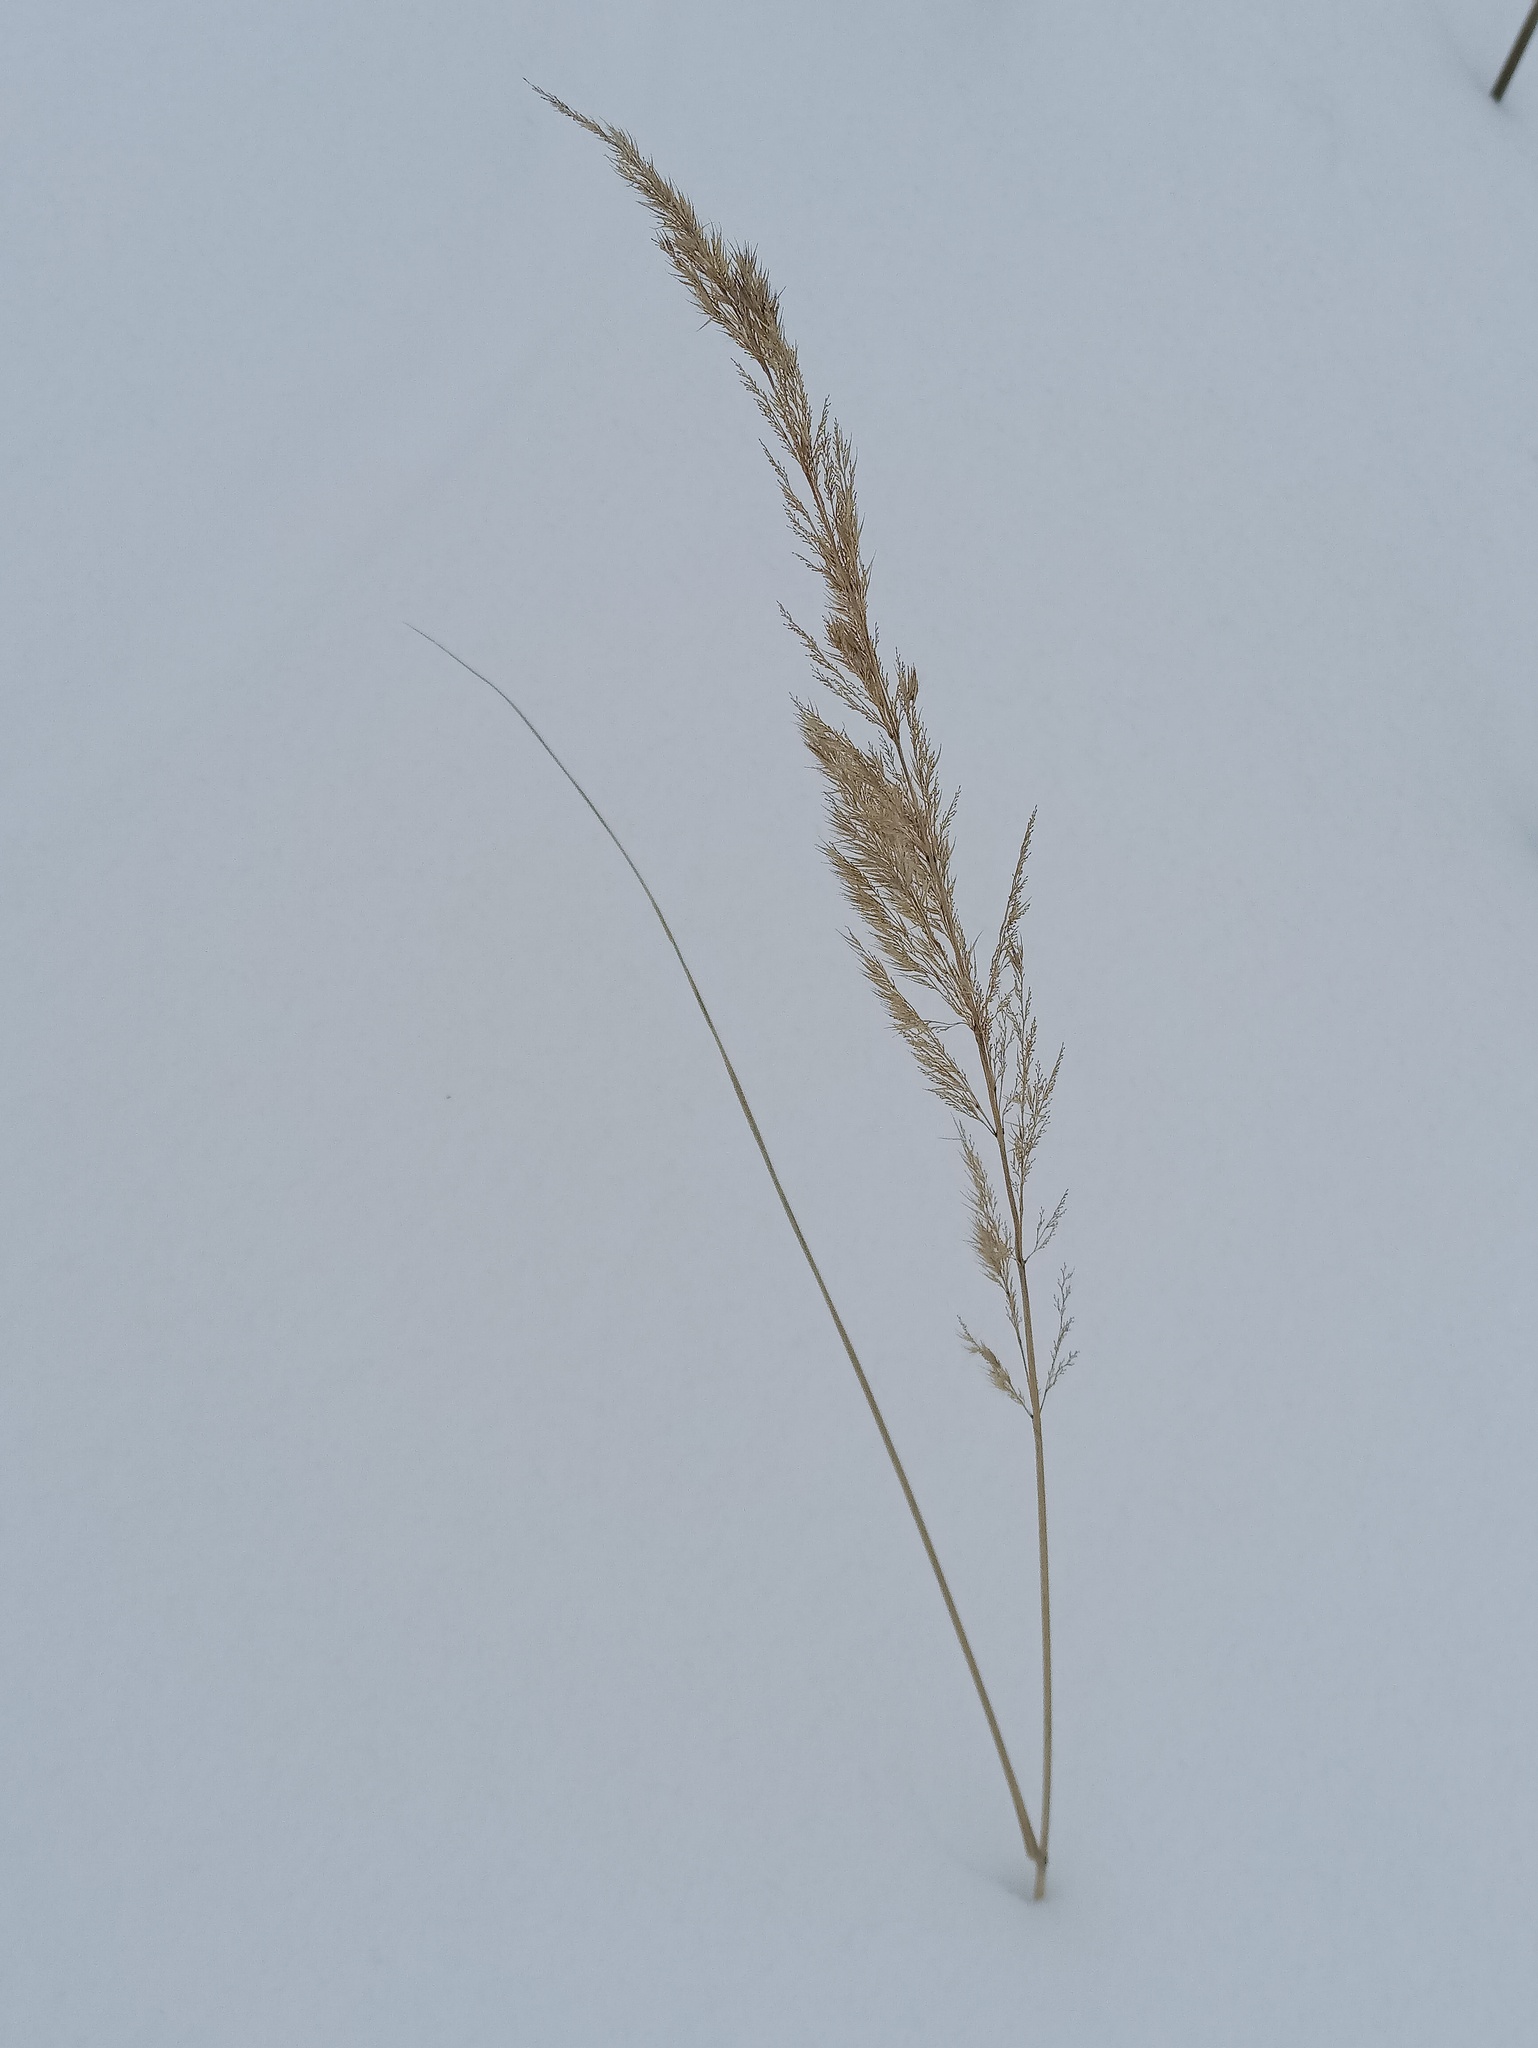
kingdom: Plantae
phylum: Tracheophyta
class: Liliopsida
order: Poales
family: Poaceae
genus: Calamagrostis
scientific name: Calamagrostis epigejos
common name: Wood small-reed
